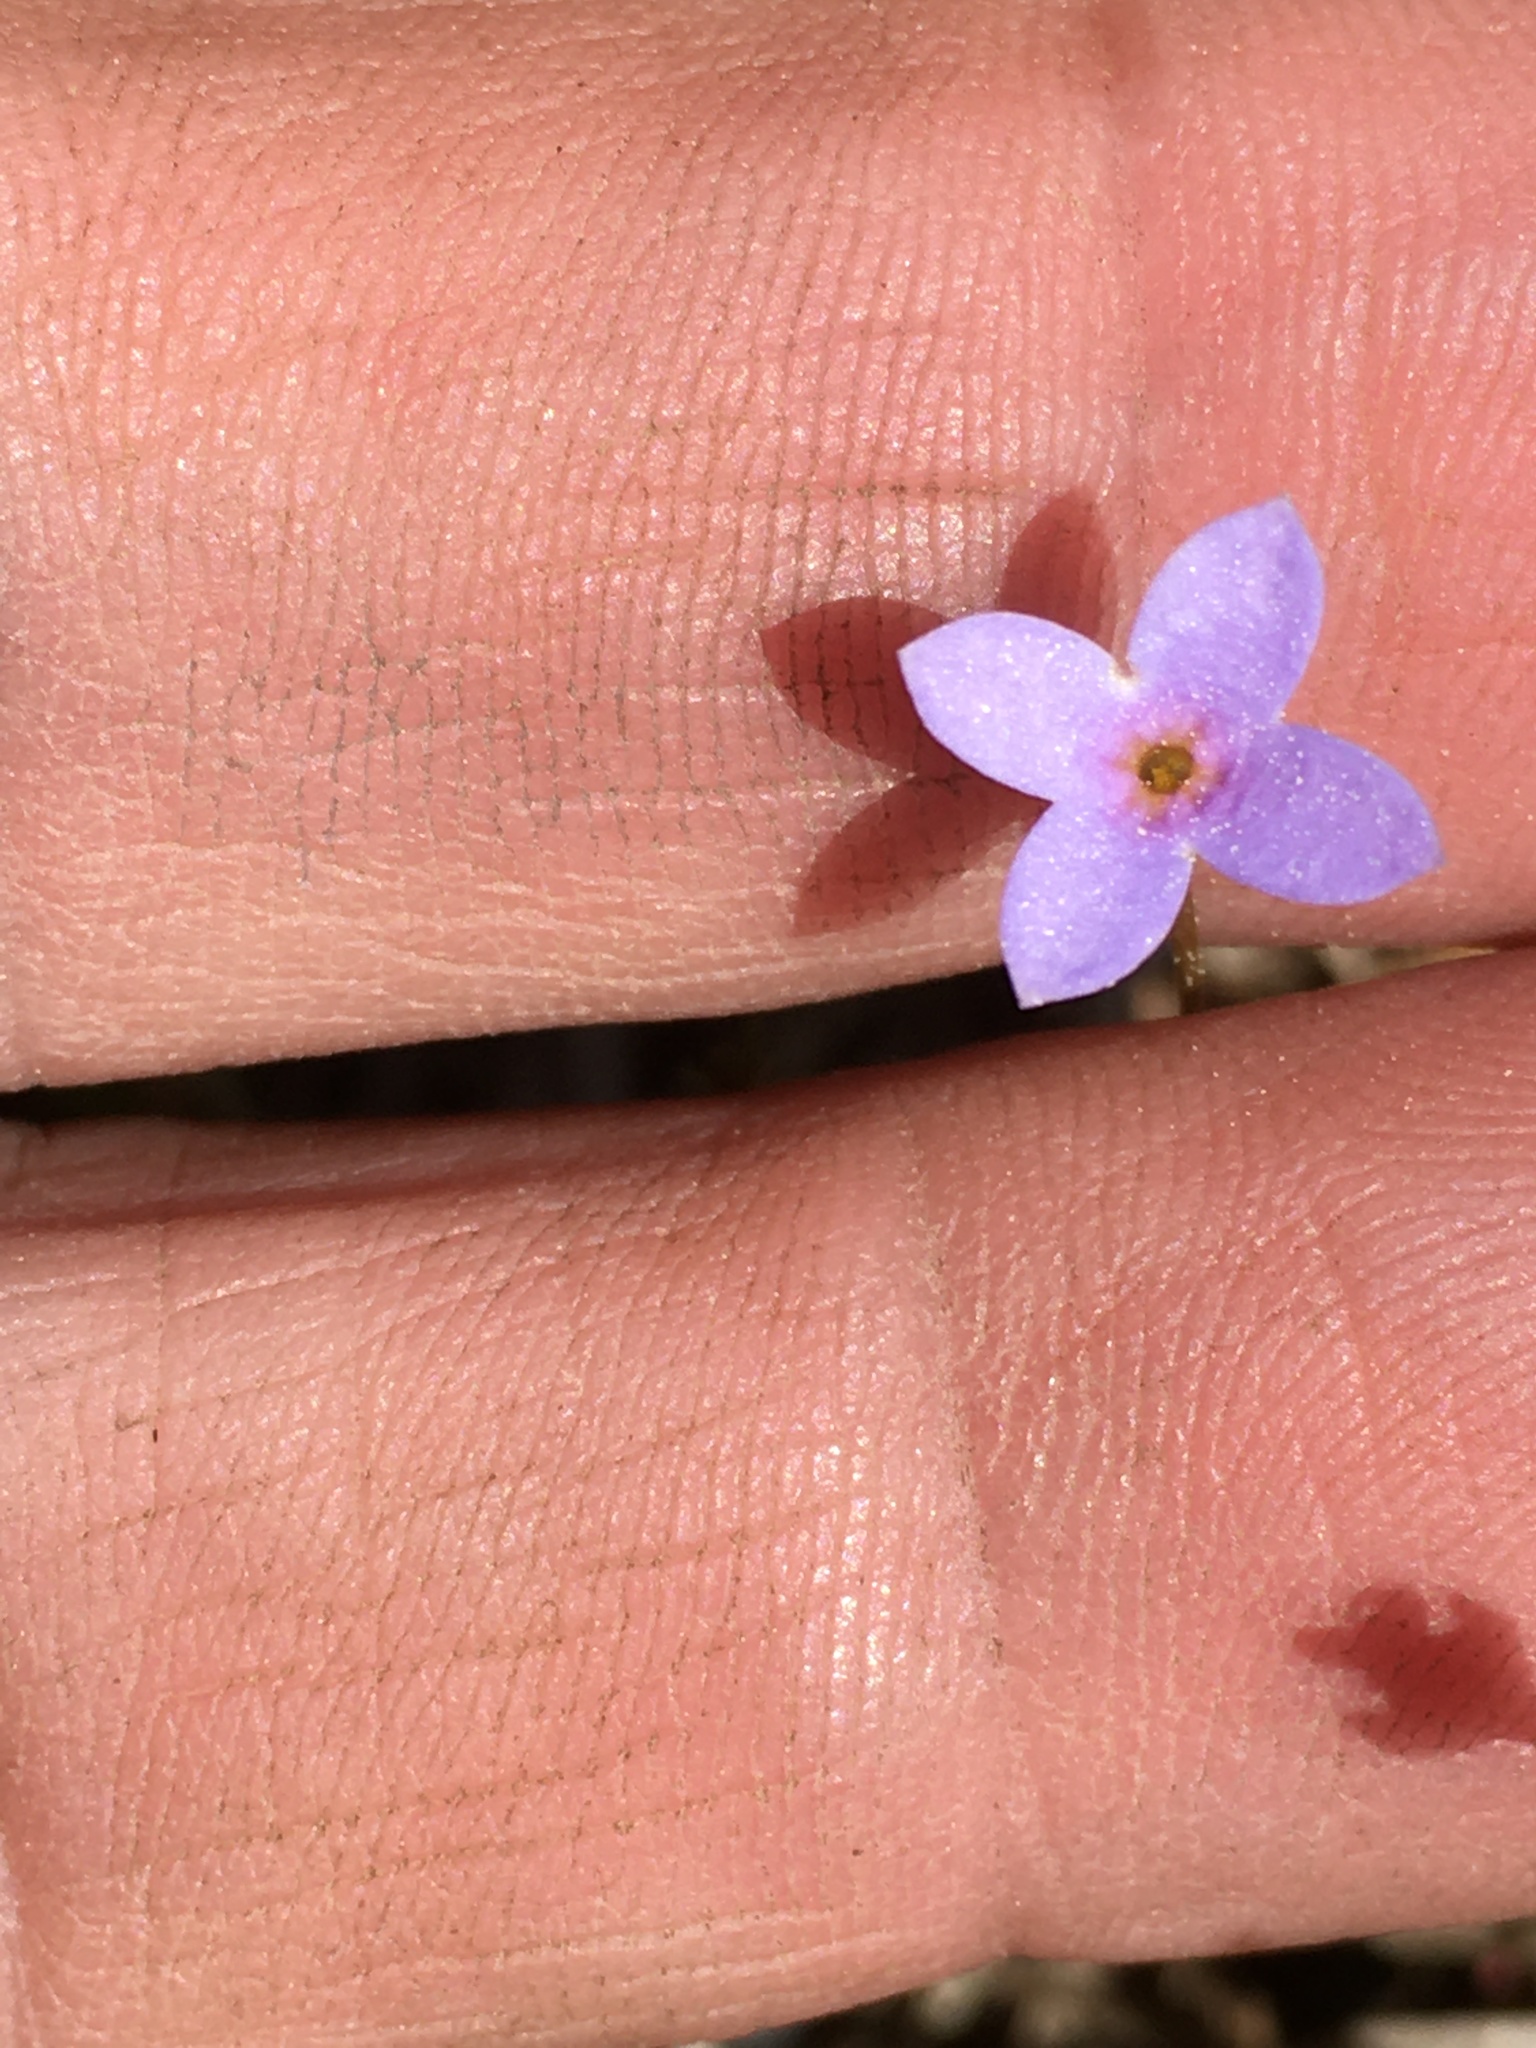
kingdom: Plantae
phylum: Tracheophyta
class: Magnoliopsida
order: Gentianales
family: Rubiaceae
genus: Houstonia
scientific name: Houstonia pusilla
